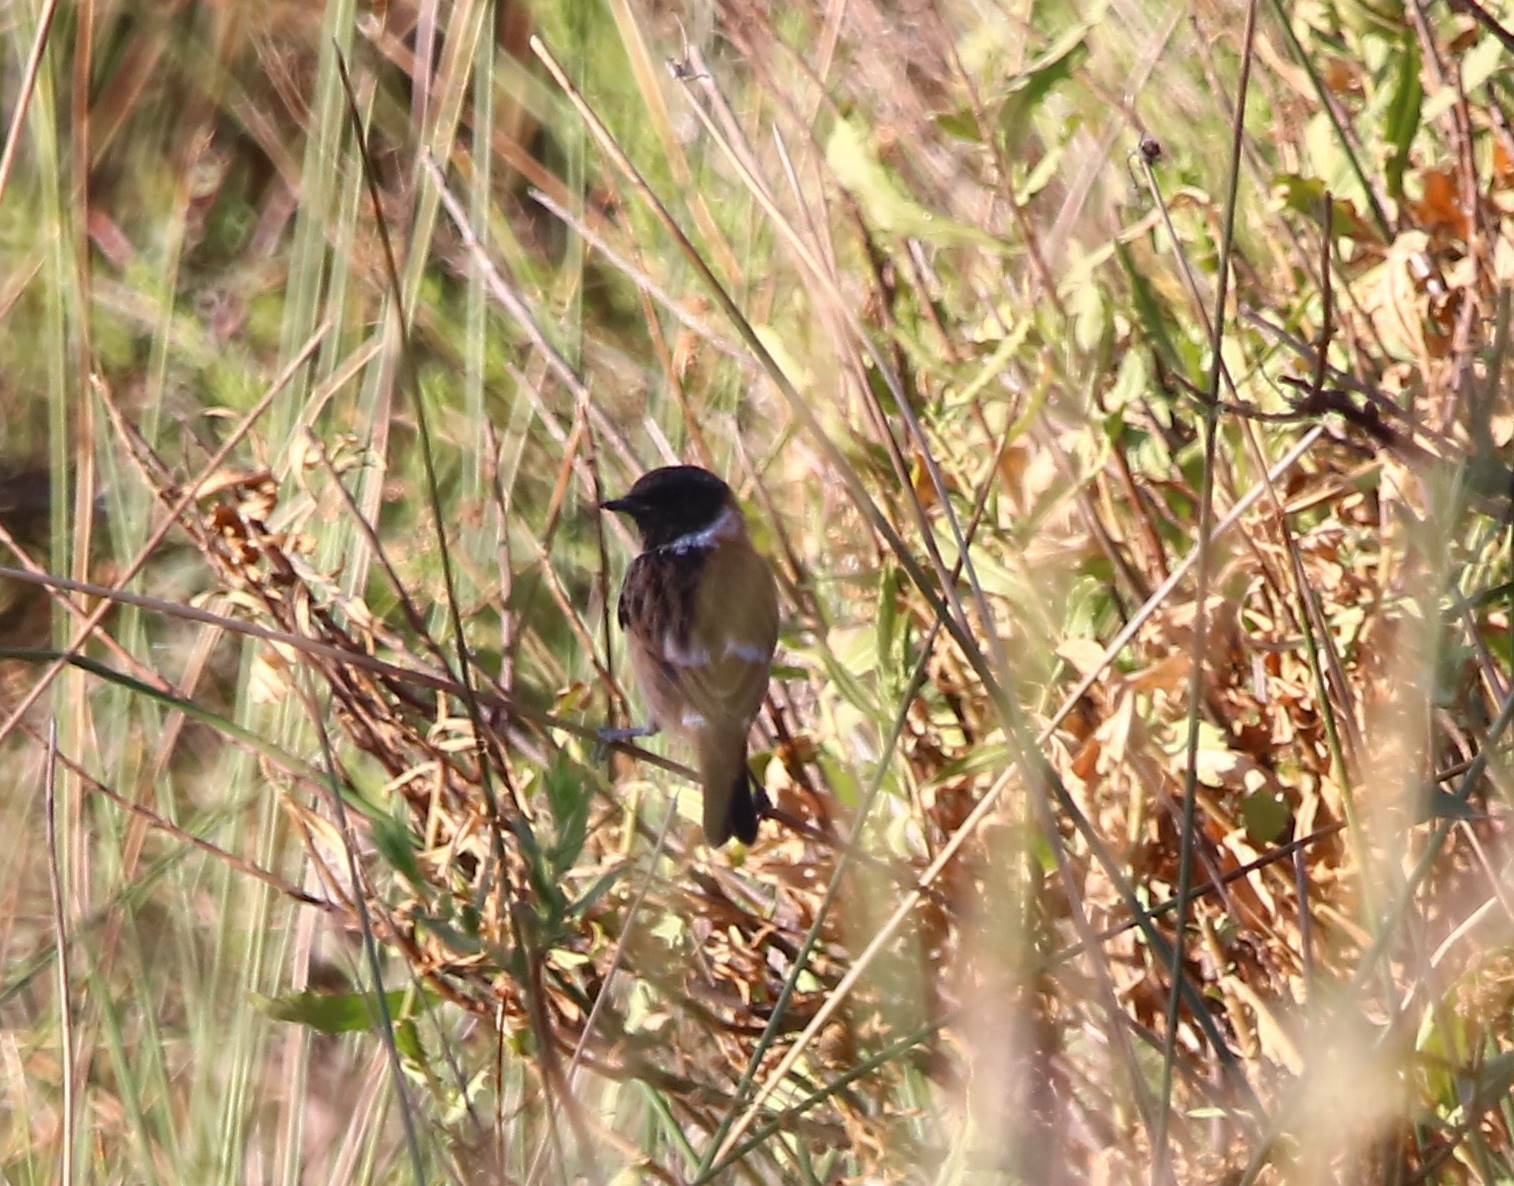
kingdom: Animalia
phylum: Chordata
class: Aves
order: Passeriformes
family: Muscicapidae
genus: Saxicola
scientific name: Saxicola rubicola
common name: European stonechat
